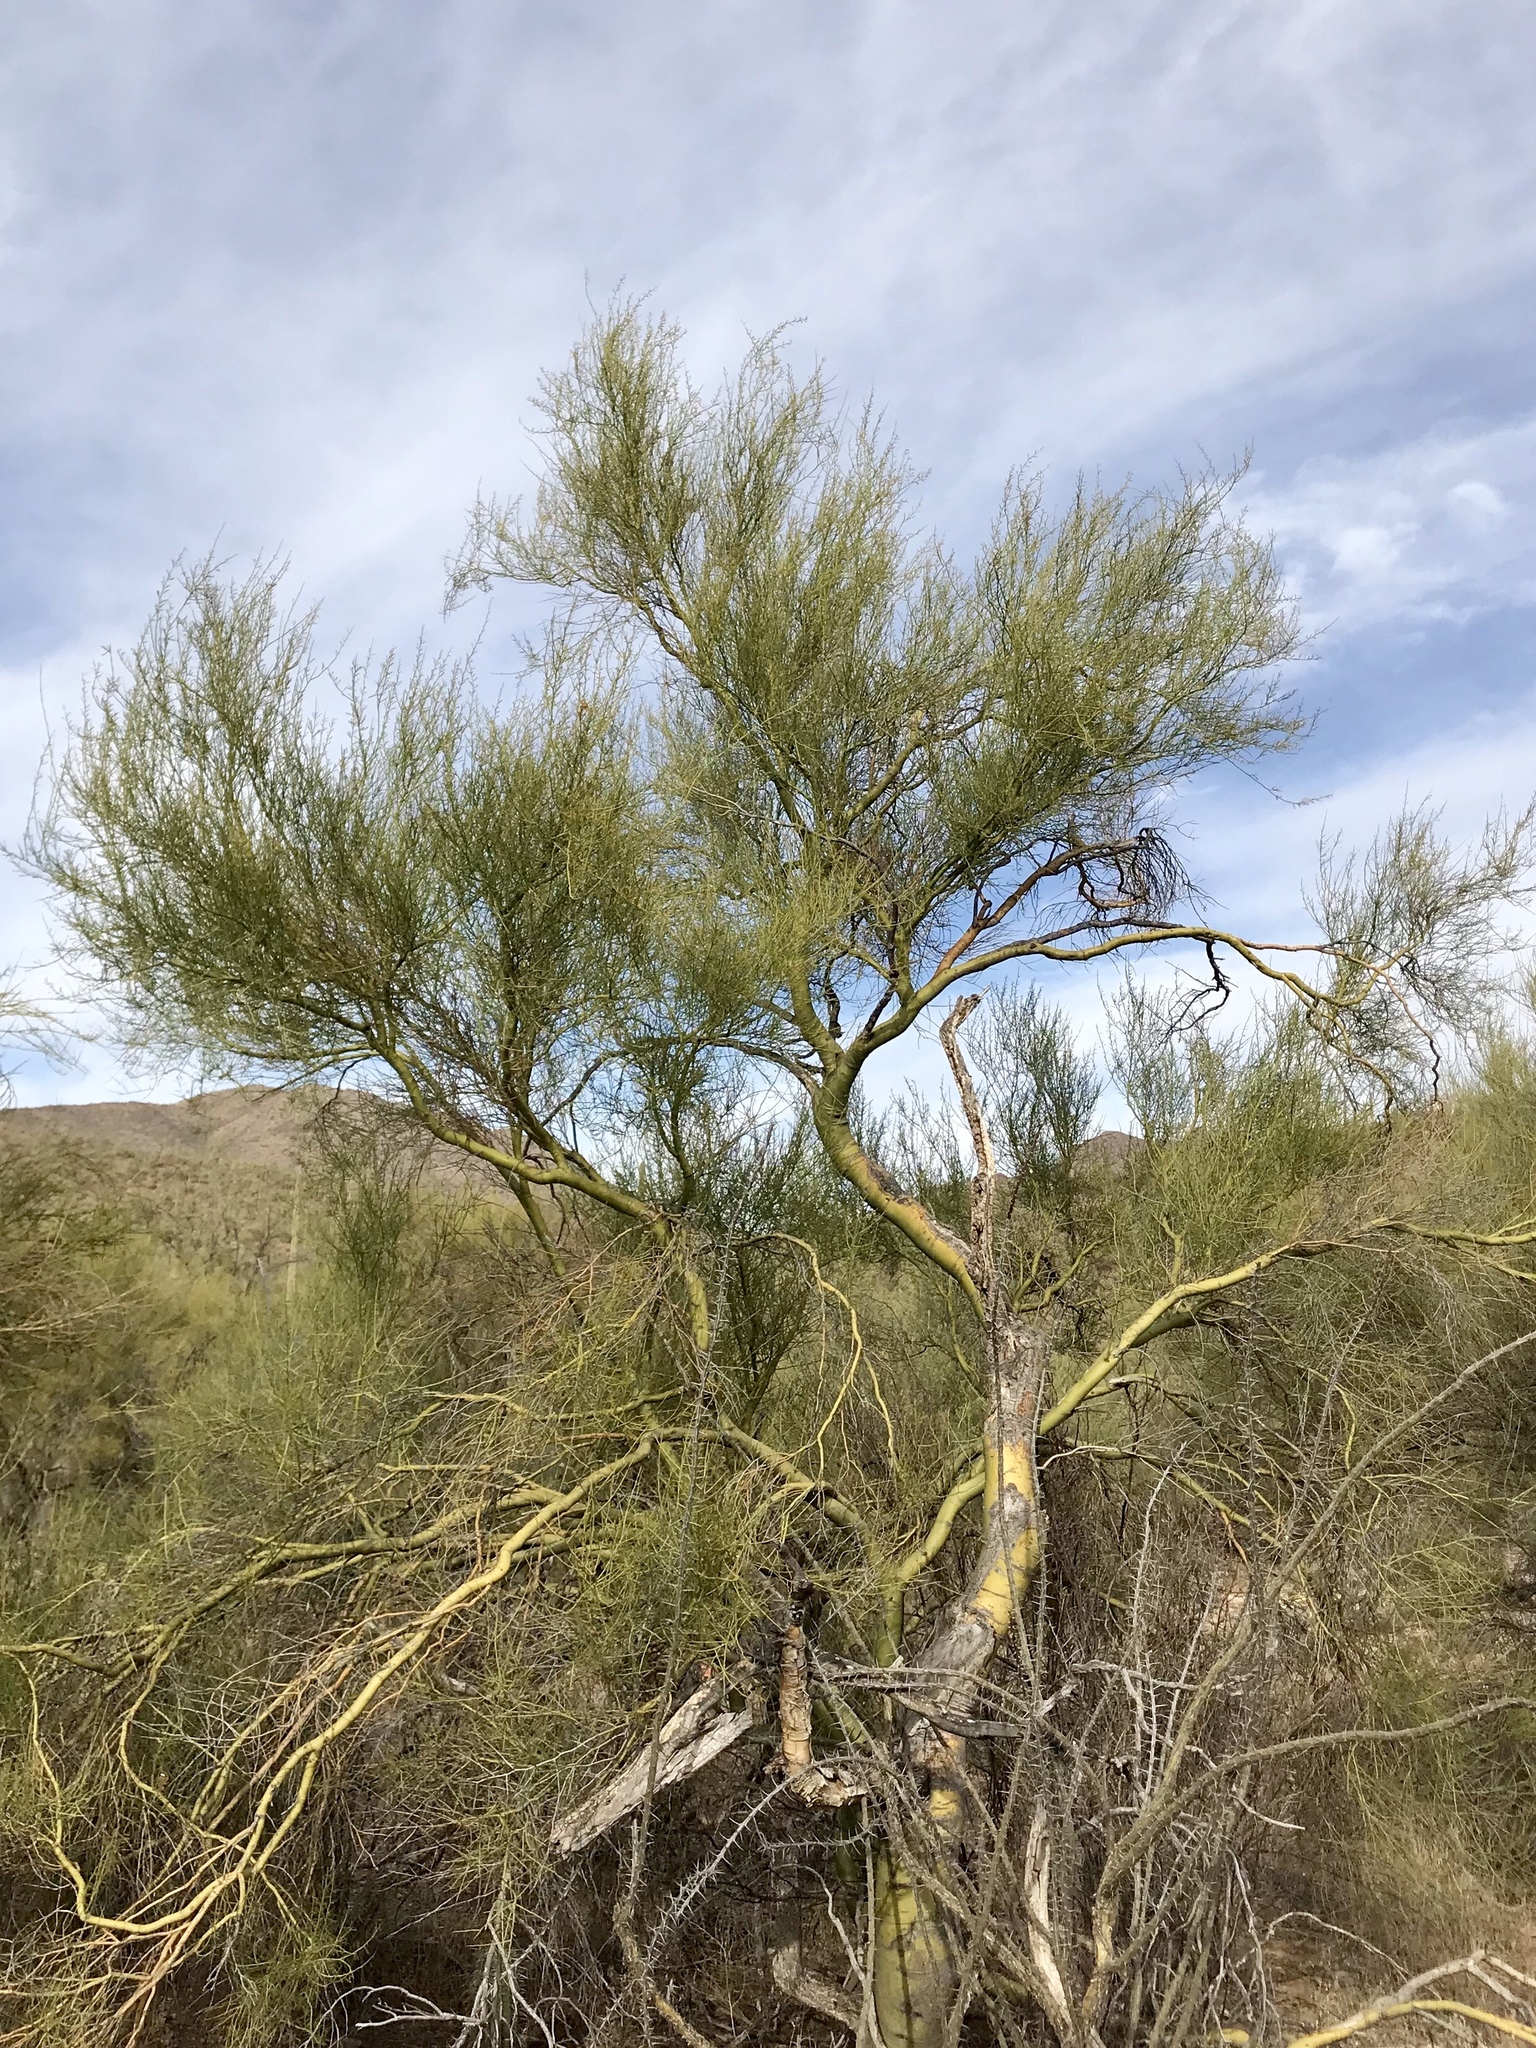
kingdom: Plantae
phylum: Tracheophyta
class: Magnoliopsida
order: Fabales
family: Fabaceae
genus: Parkinsonia
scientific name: Parkinsonia microphylla
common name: Yellow paloverde
